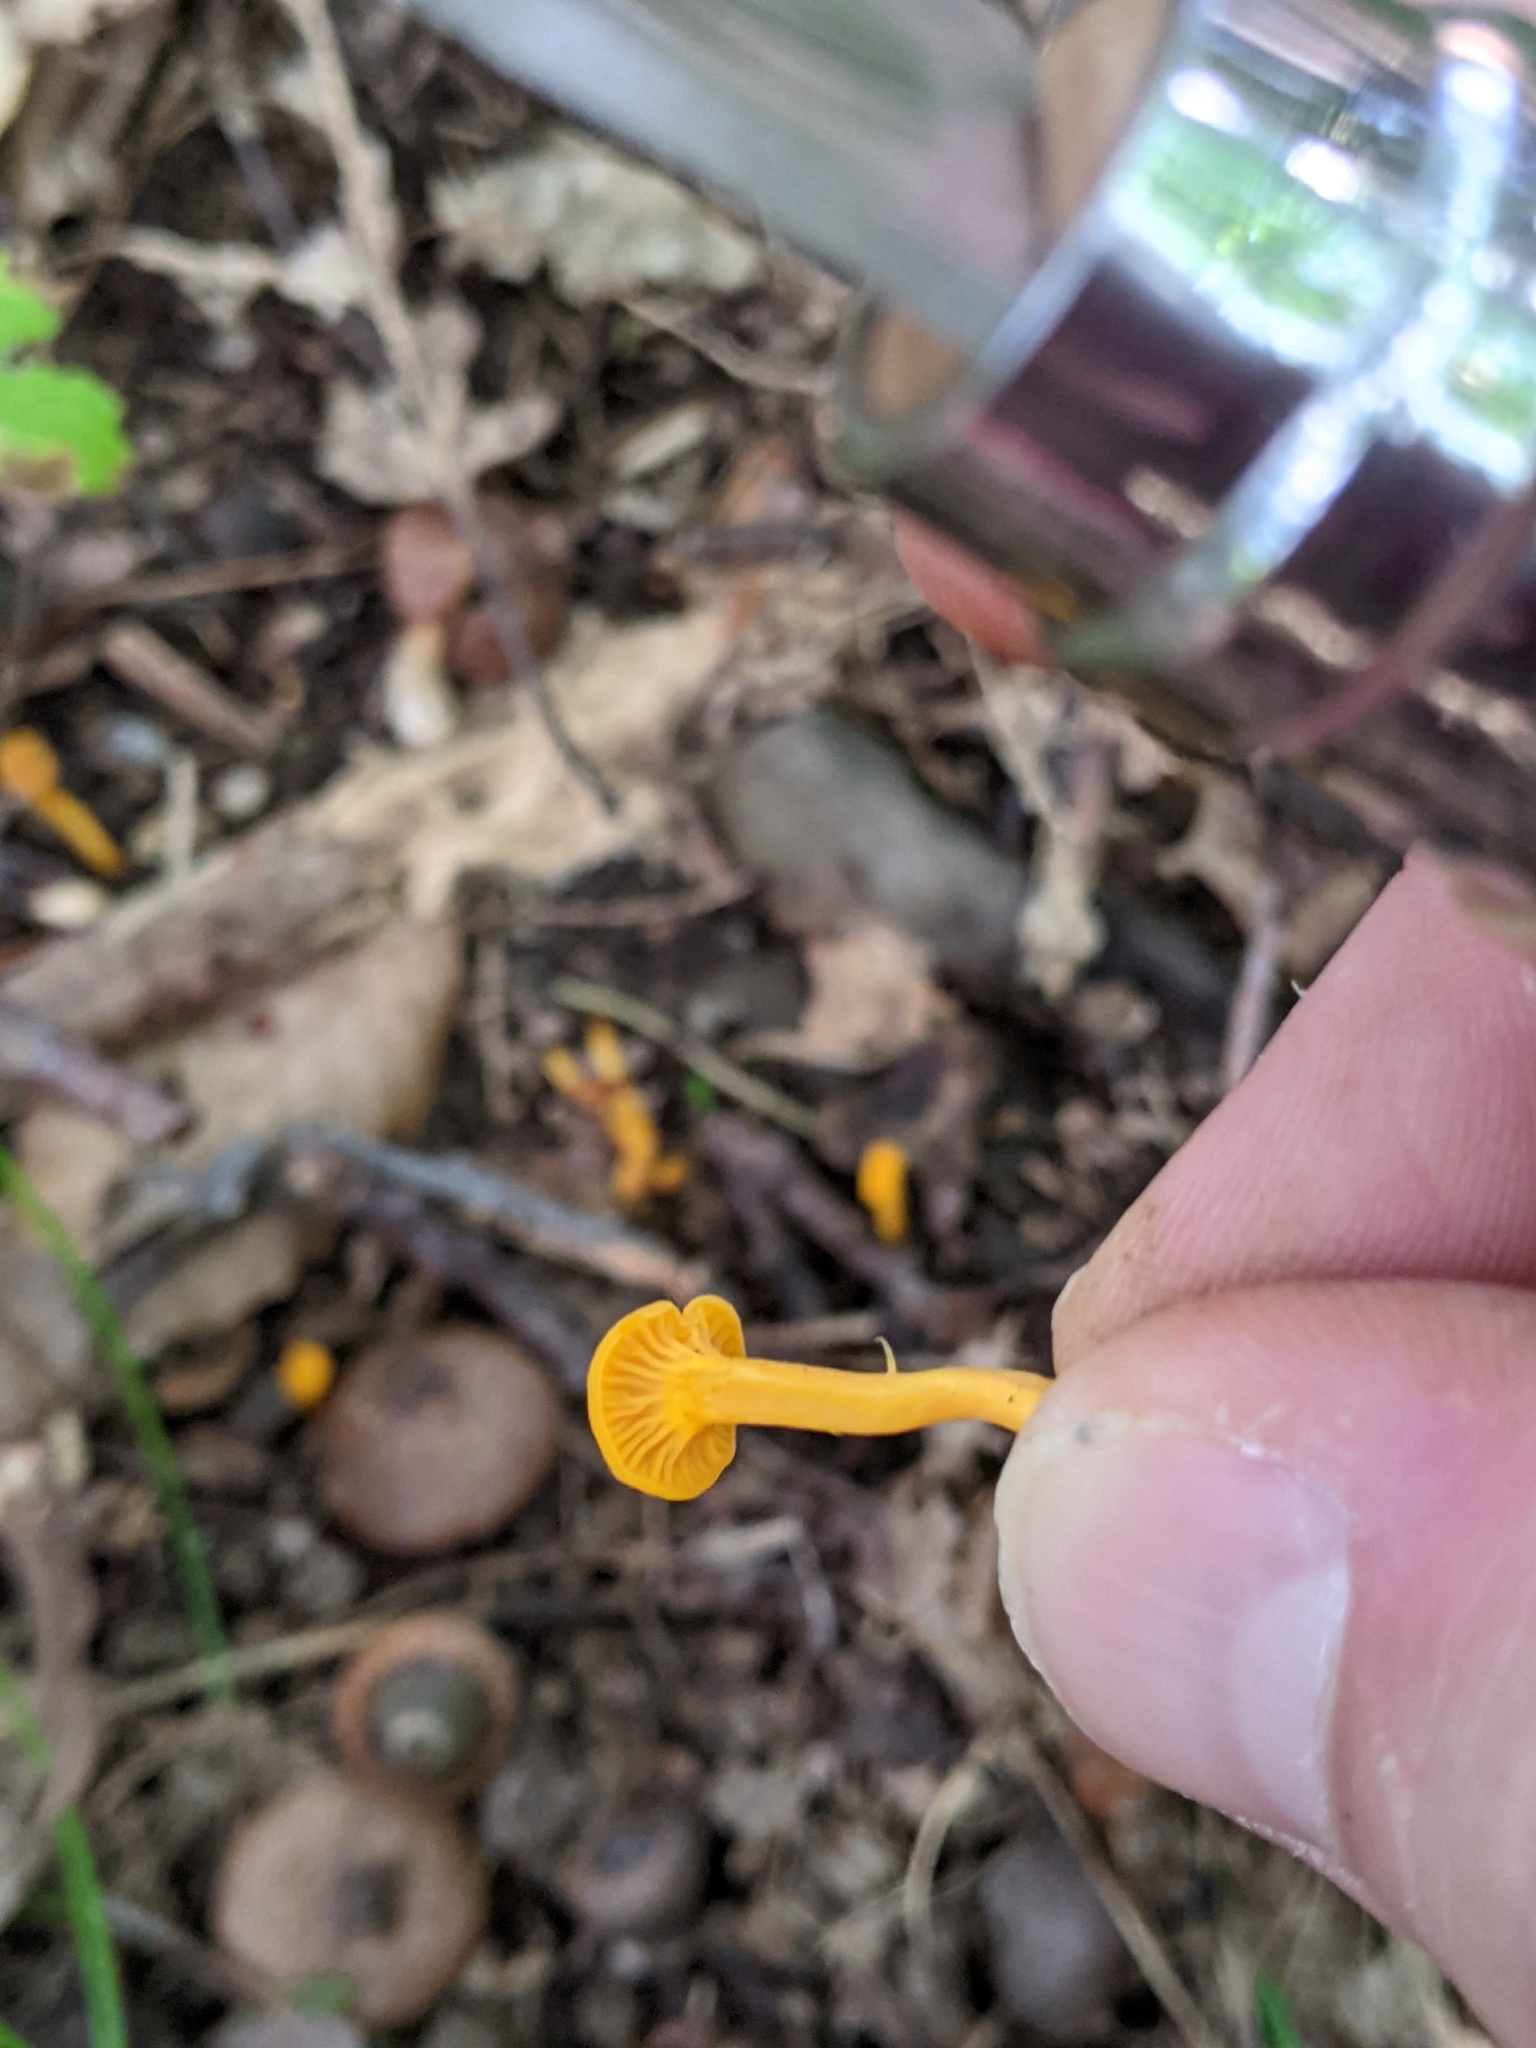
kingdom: Fungi
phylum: Basidiomycota
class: Agaricomycetes
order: Cantharellales
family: Hydnaceae
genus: Cantharellus
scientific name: Cantharellus minor
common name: Small chanterelle
